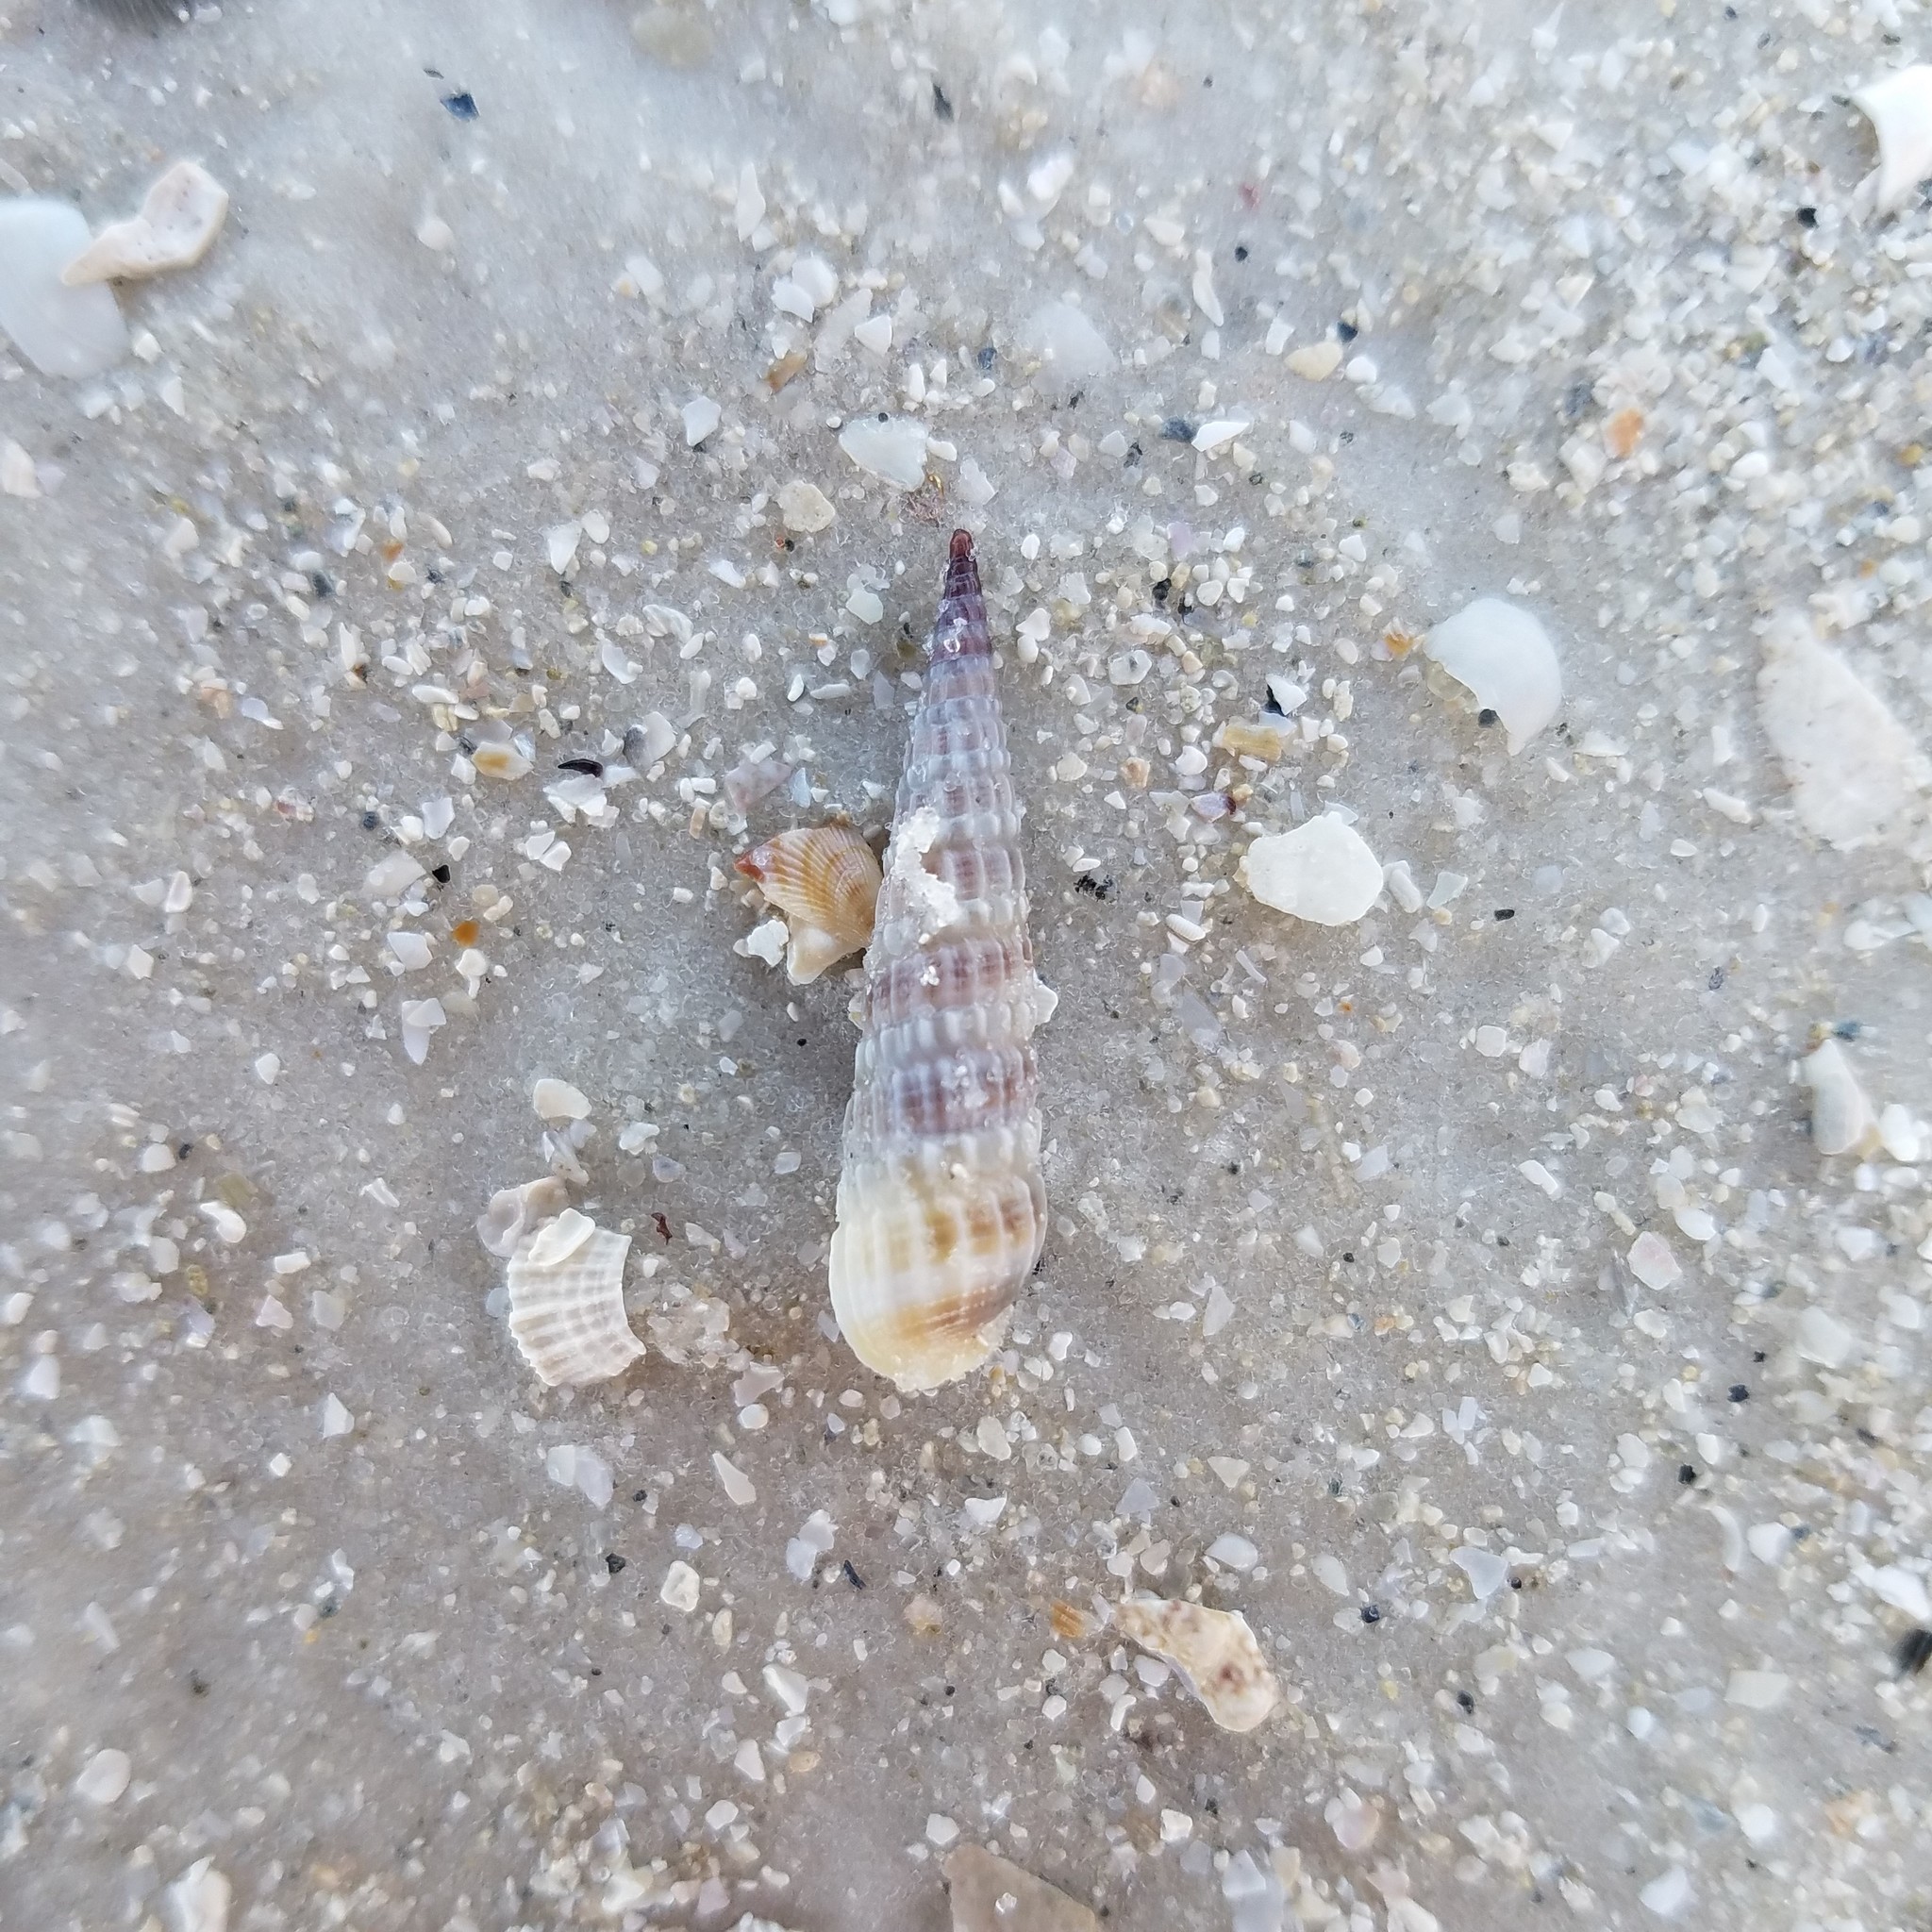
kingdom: Animalia
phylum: Mollusca
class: Gastropoda
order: Neogastropoda
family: Terebridae
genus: Neoterebra
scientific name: Neoterebra dislocata
